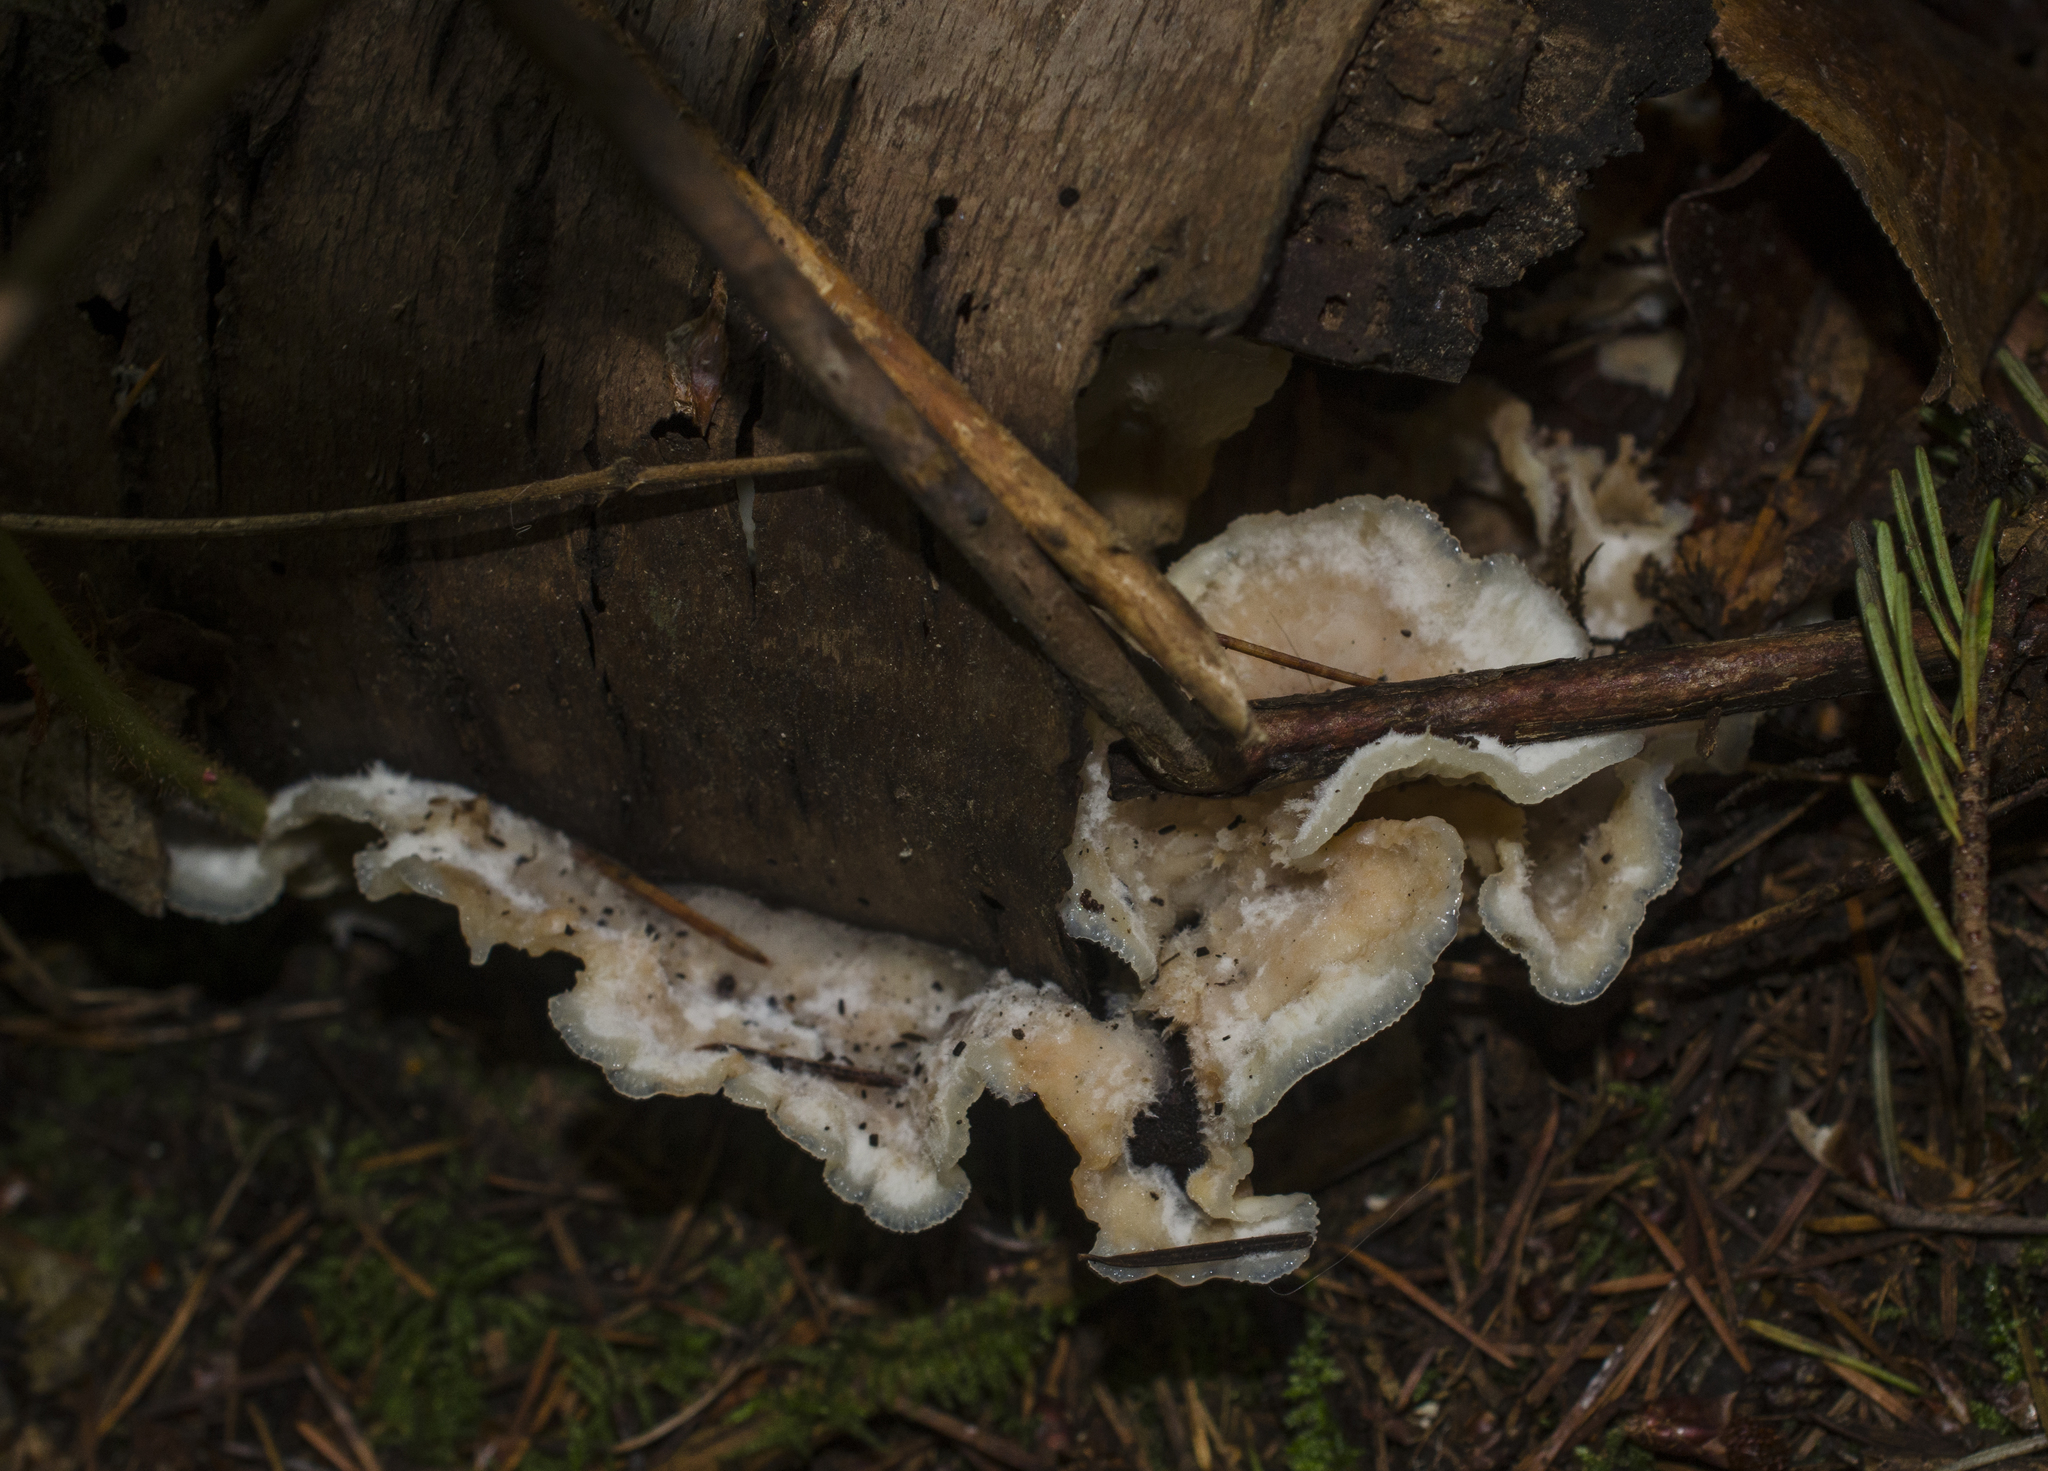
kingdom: Fungi
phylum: Basidiomycota
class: Agaricomycetes
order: Polyporales
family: Meruliaceae
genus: Phlebia
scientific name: Phlebia tremellosa
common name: Jelly rot
